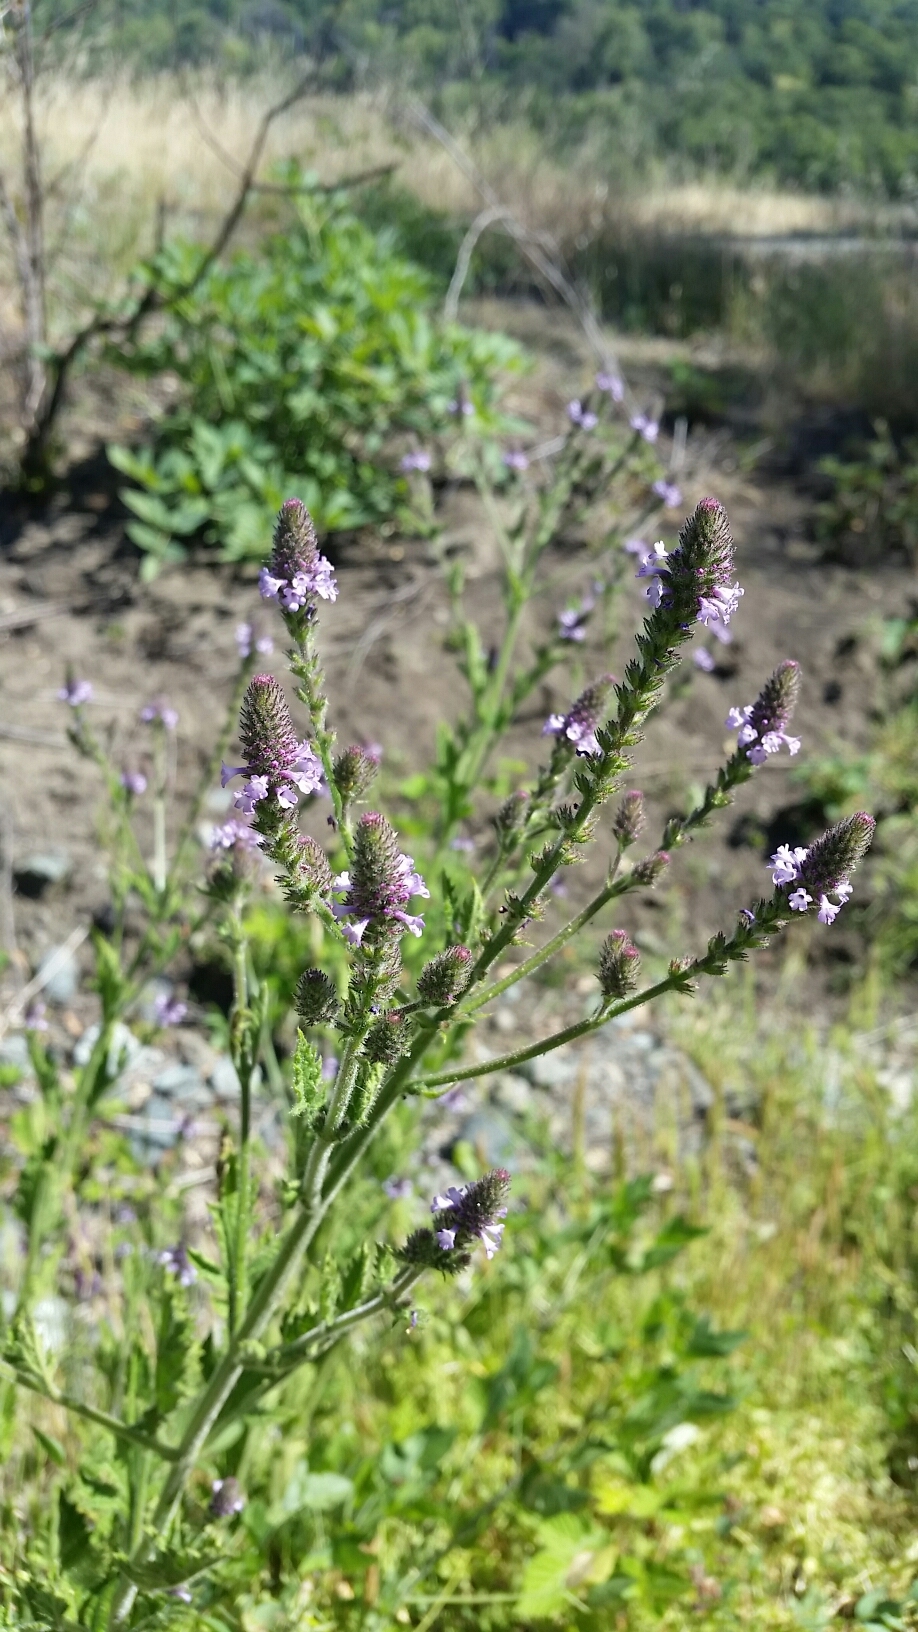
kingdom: Plantae
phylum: Tracheophyta
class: Magnoliopsida
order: Lamiales
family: Verbenaceae
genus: Verbena
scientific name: Verbena lasiostachys
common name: Vervain
